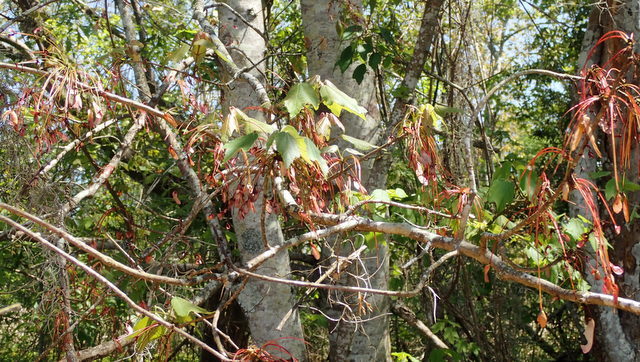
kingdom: Plantae
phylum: Tracheophyta
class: Magnoliopsida
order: Sapindales
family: Sapindaceae
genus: Acer
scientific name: Acer rubrum
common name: Red maple
